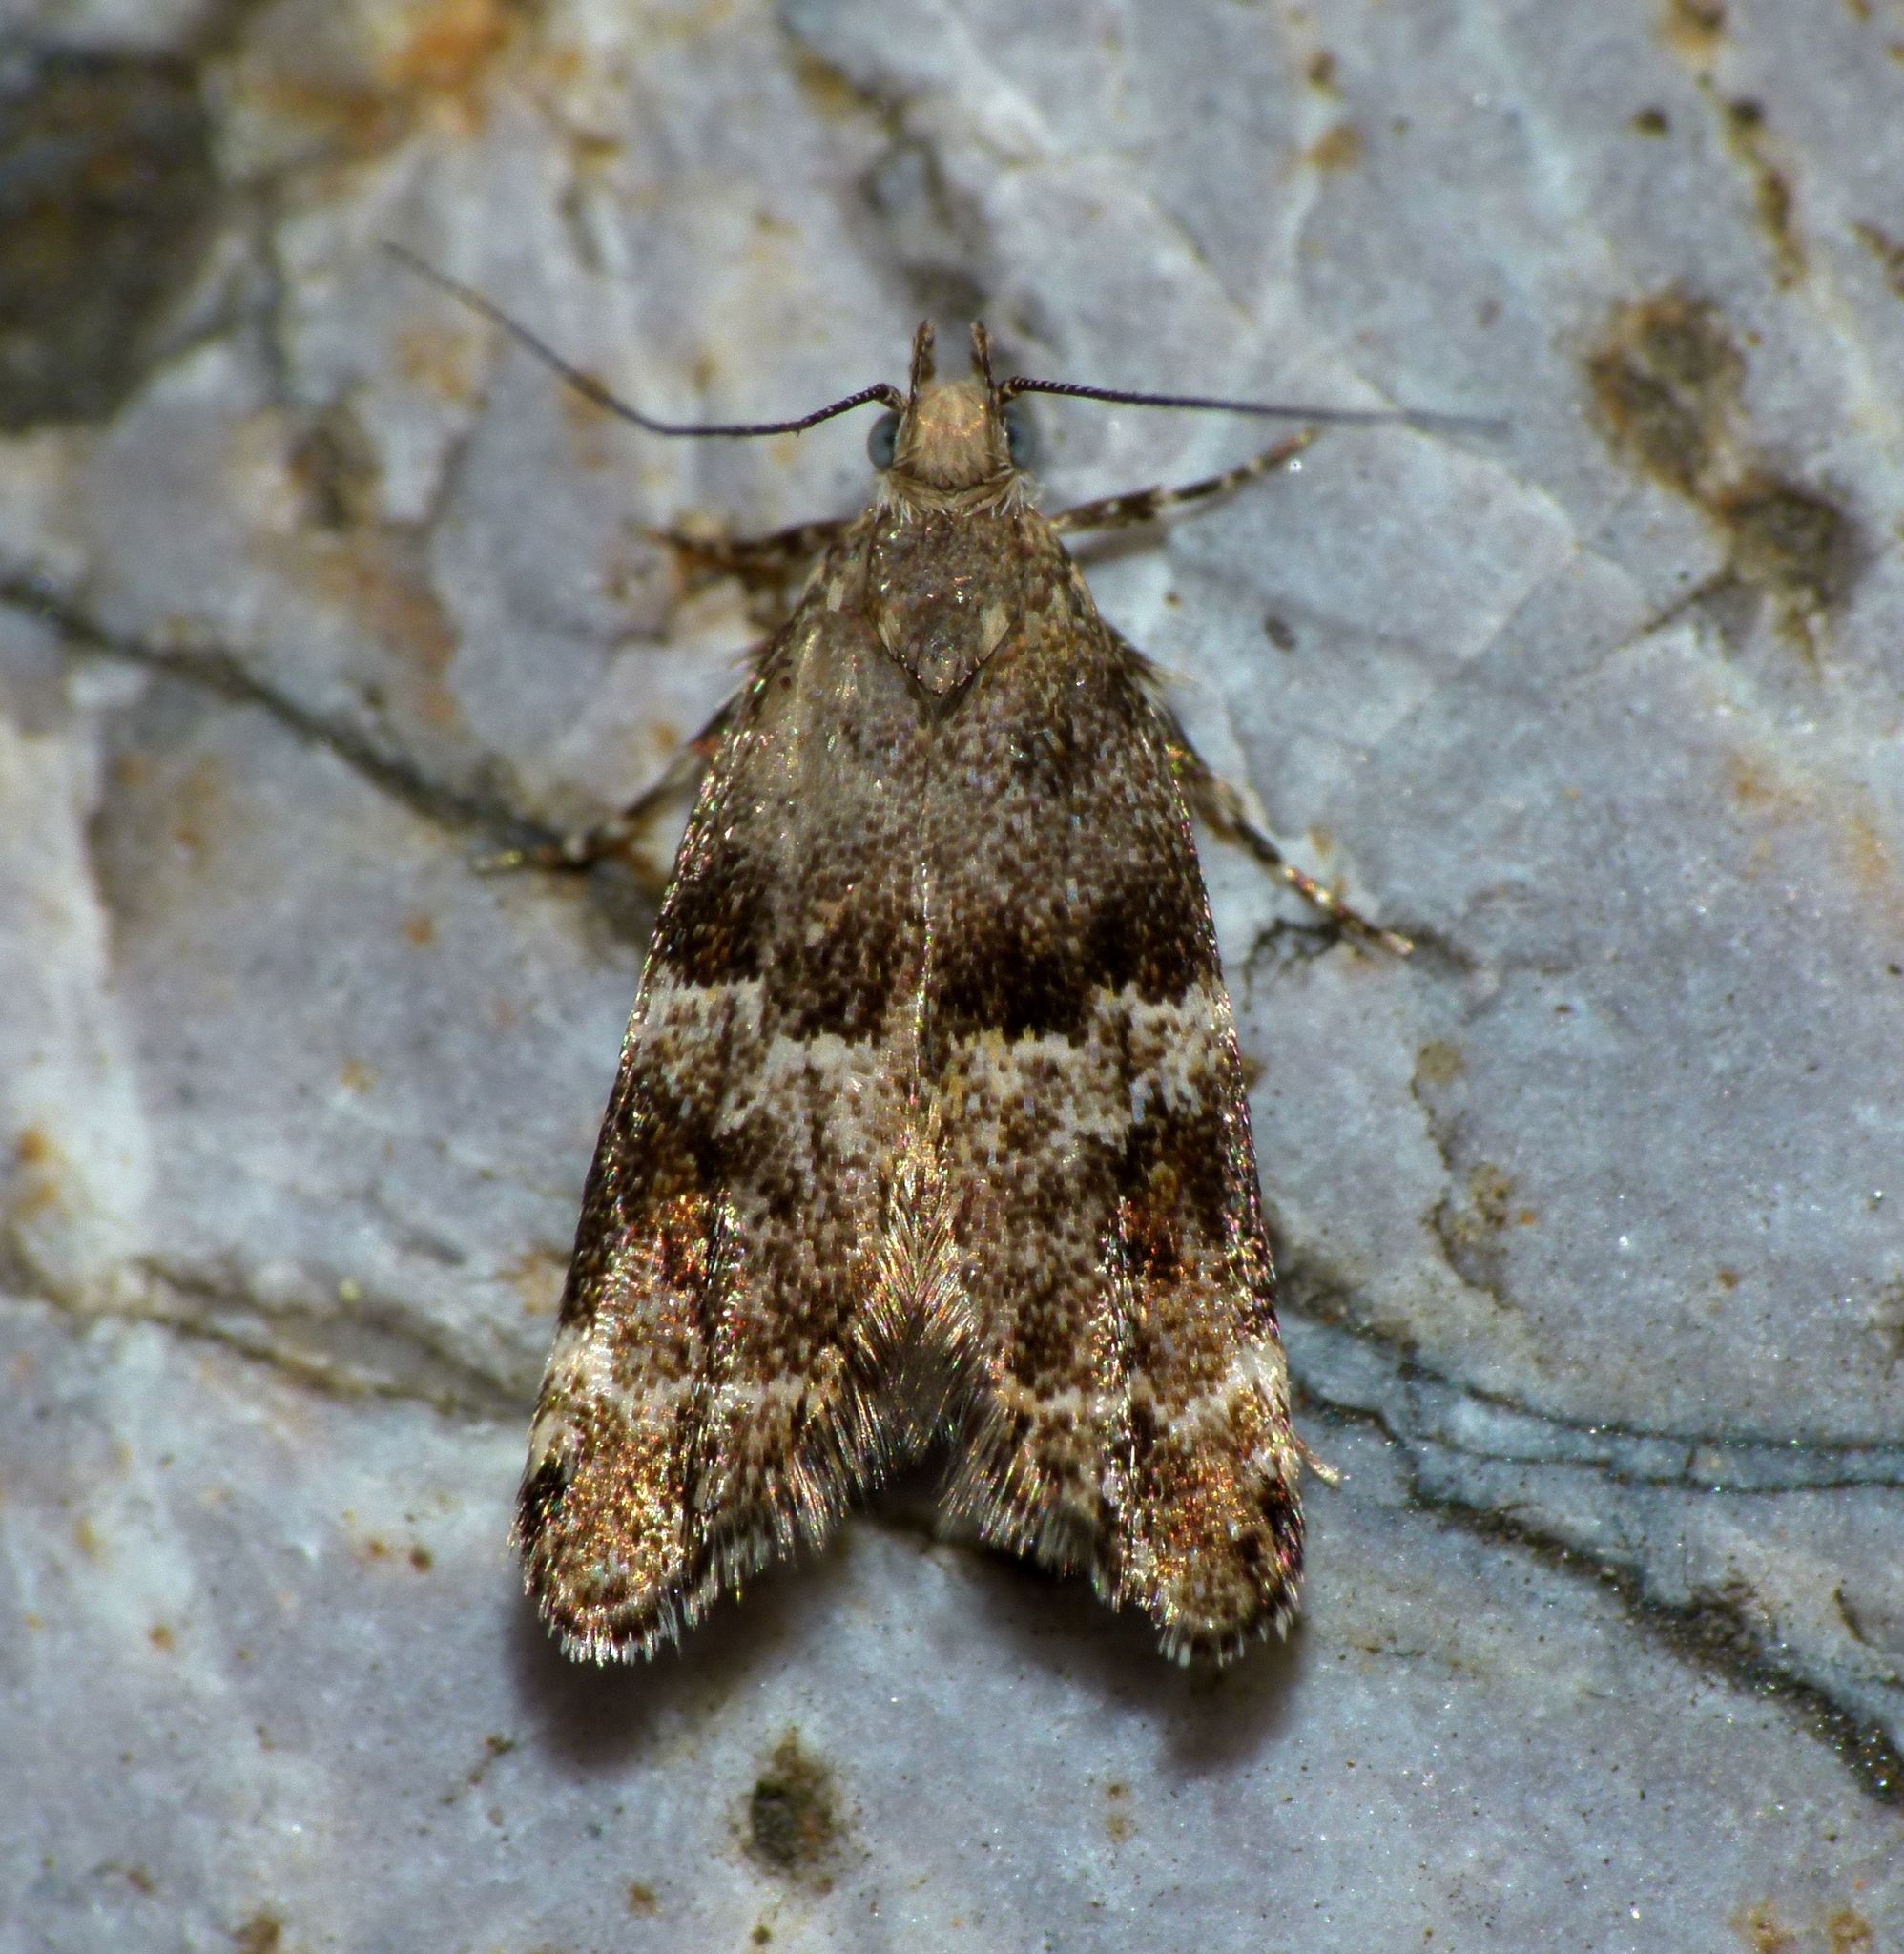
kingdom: Animalia
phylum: Arthropoda
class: Insecta
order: Lepidoptera
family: Oecophoridae
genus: Gymnobathra
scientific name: Gymnobathra omphalota
